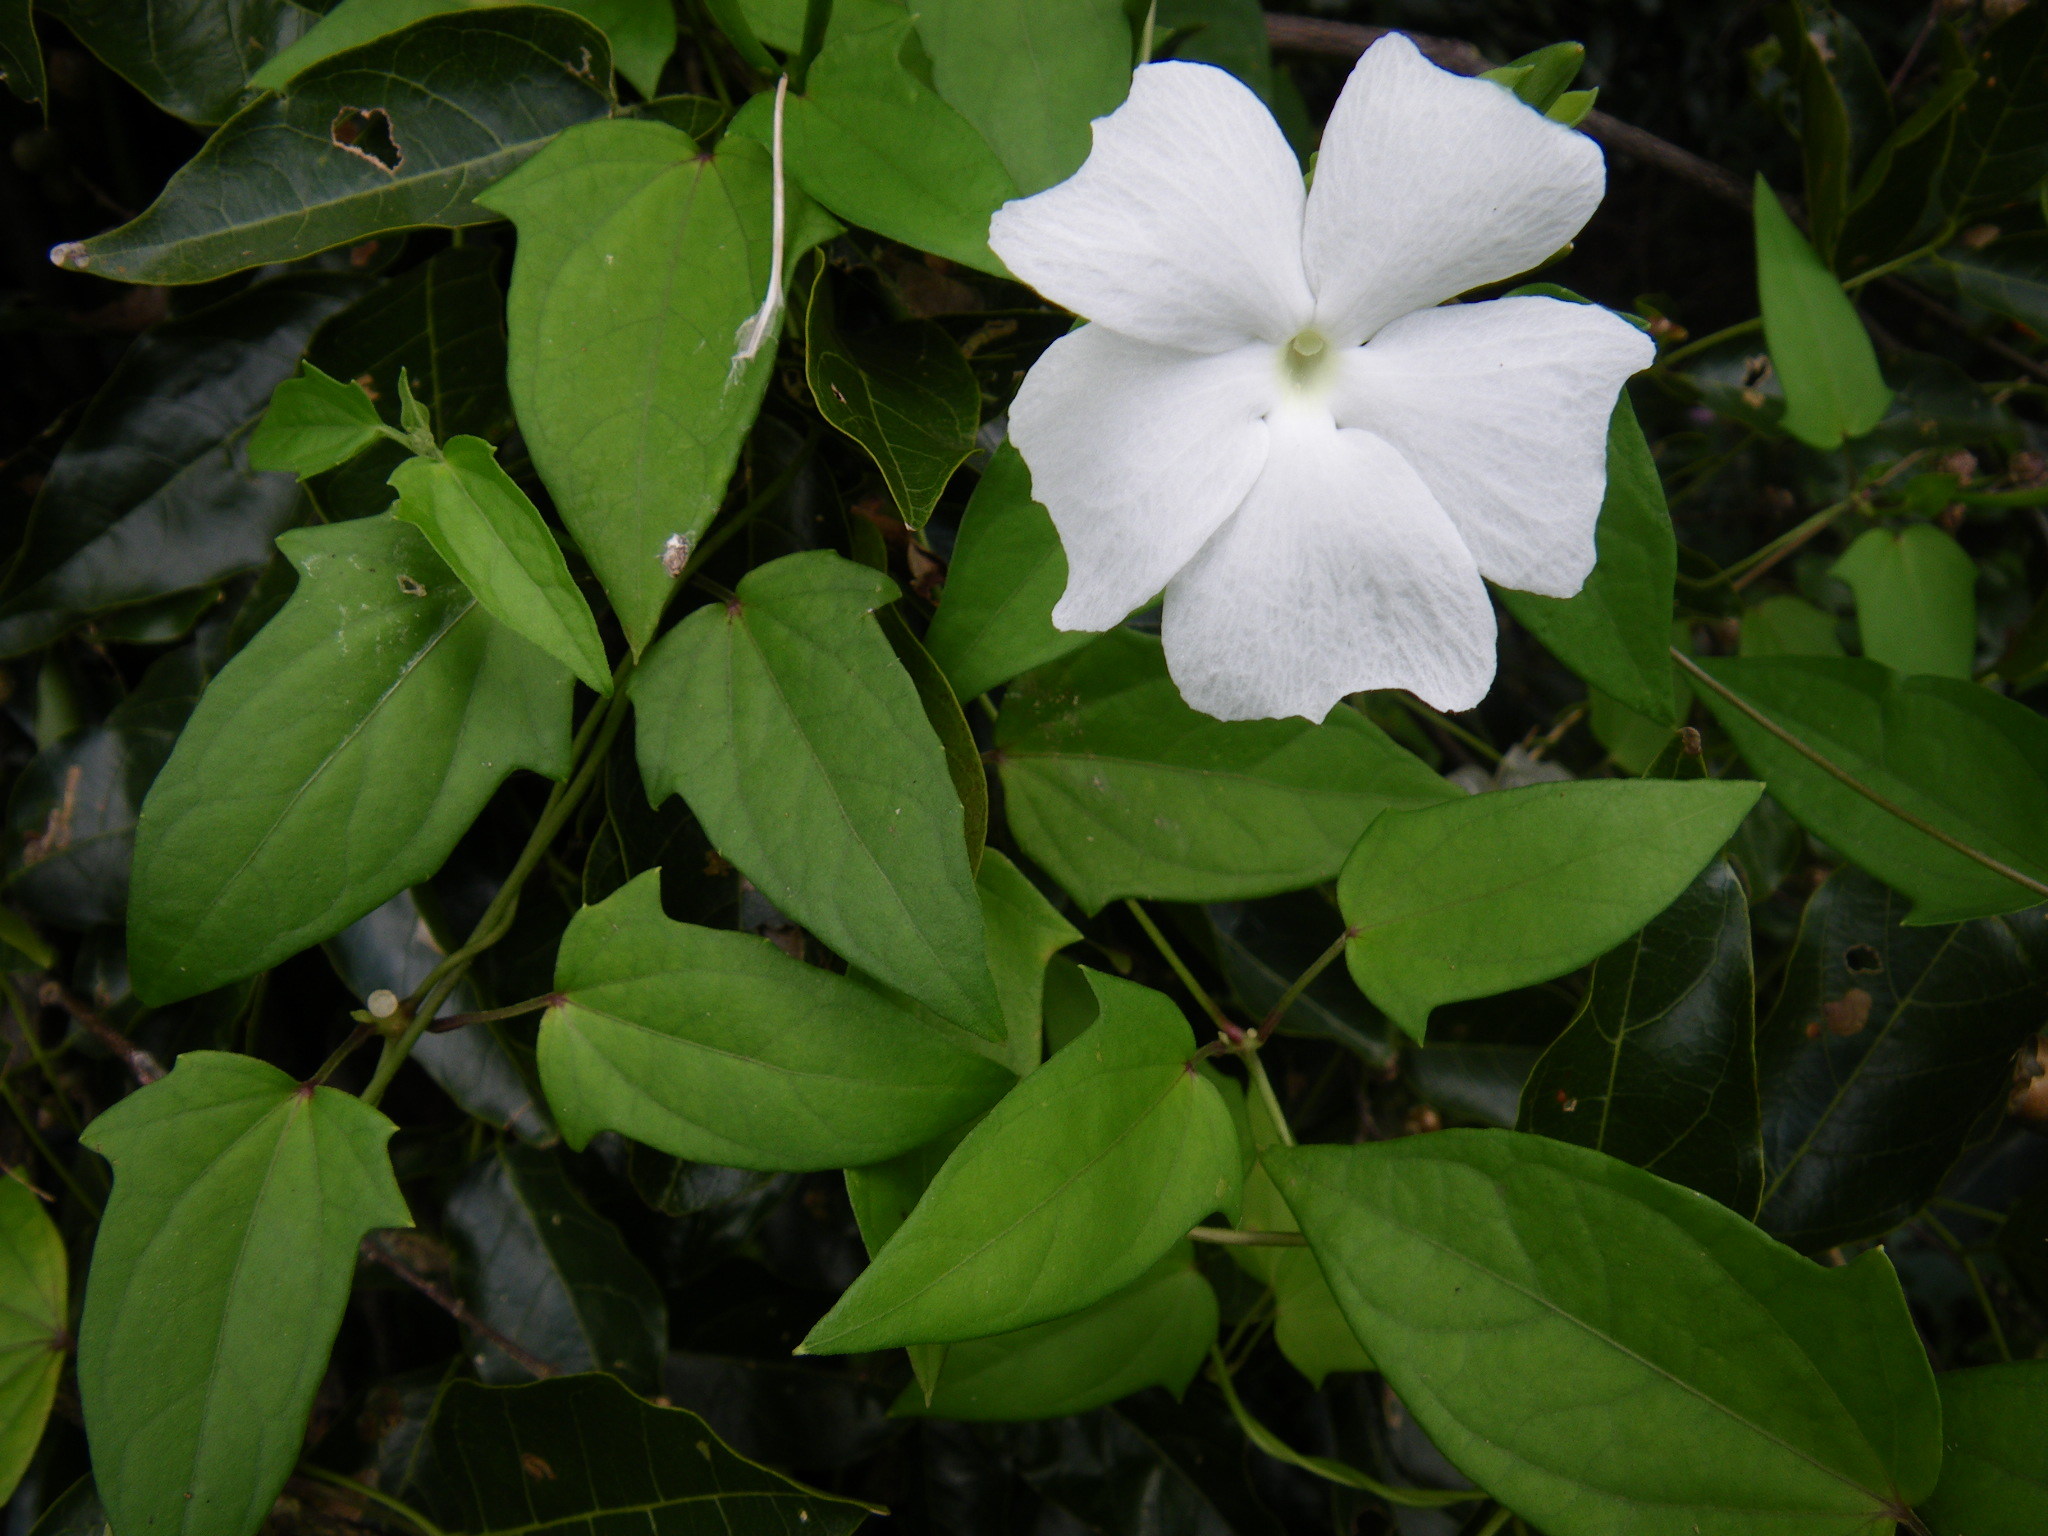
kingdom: Plantae
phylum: Tracheophyta
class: Magnoliopsida
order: Lamiales
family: Acanthaceae
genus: Thunbergia
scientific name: Thunbergia fragrans
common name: Whitelady
